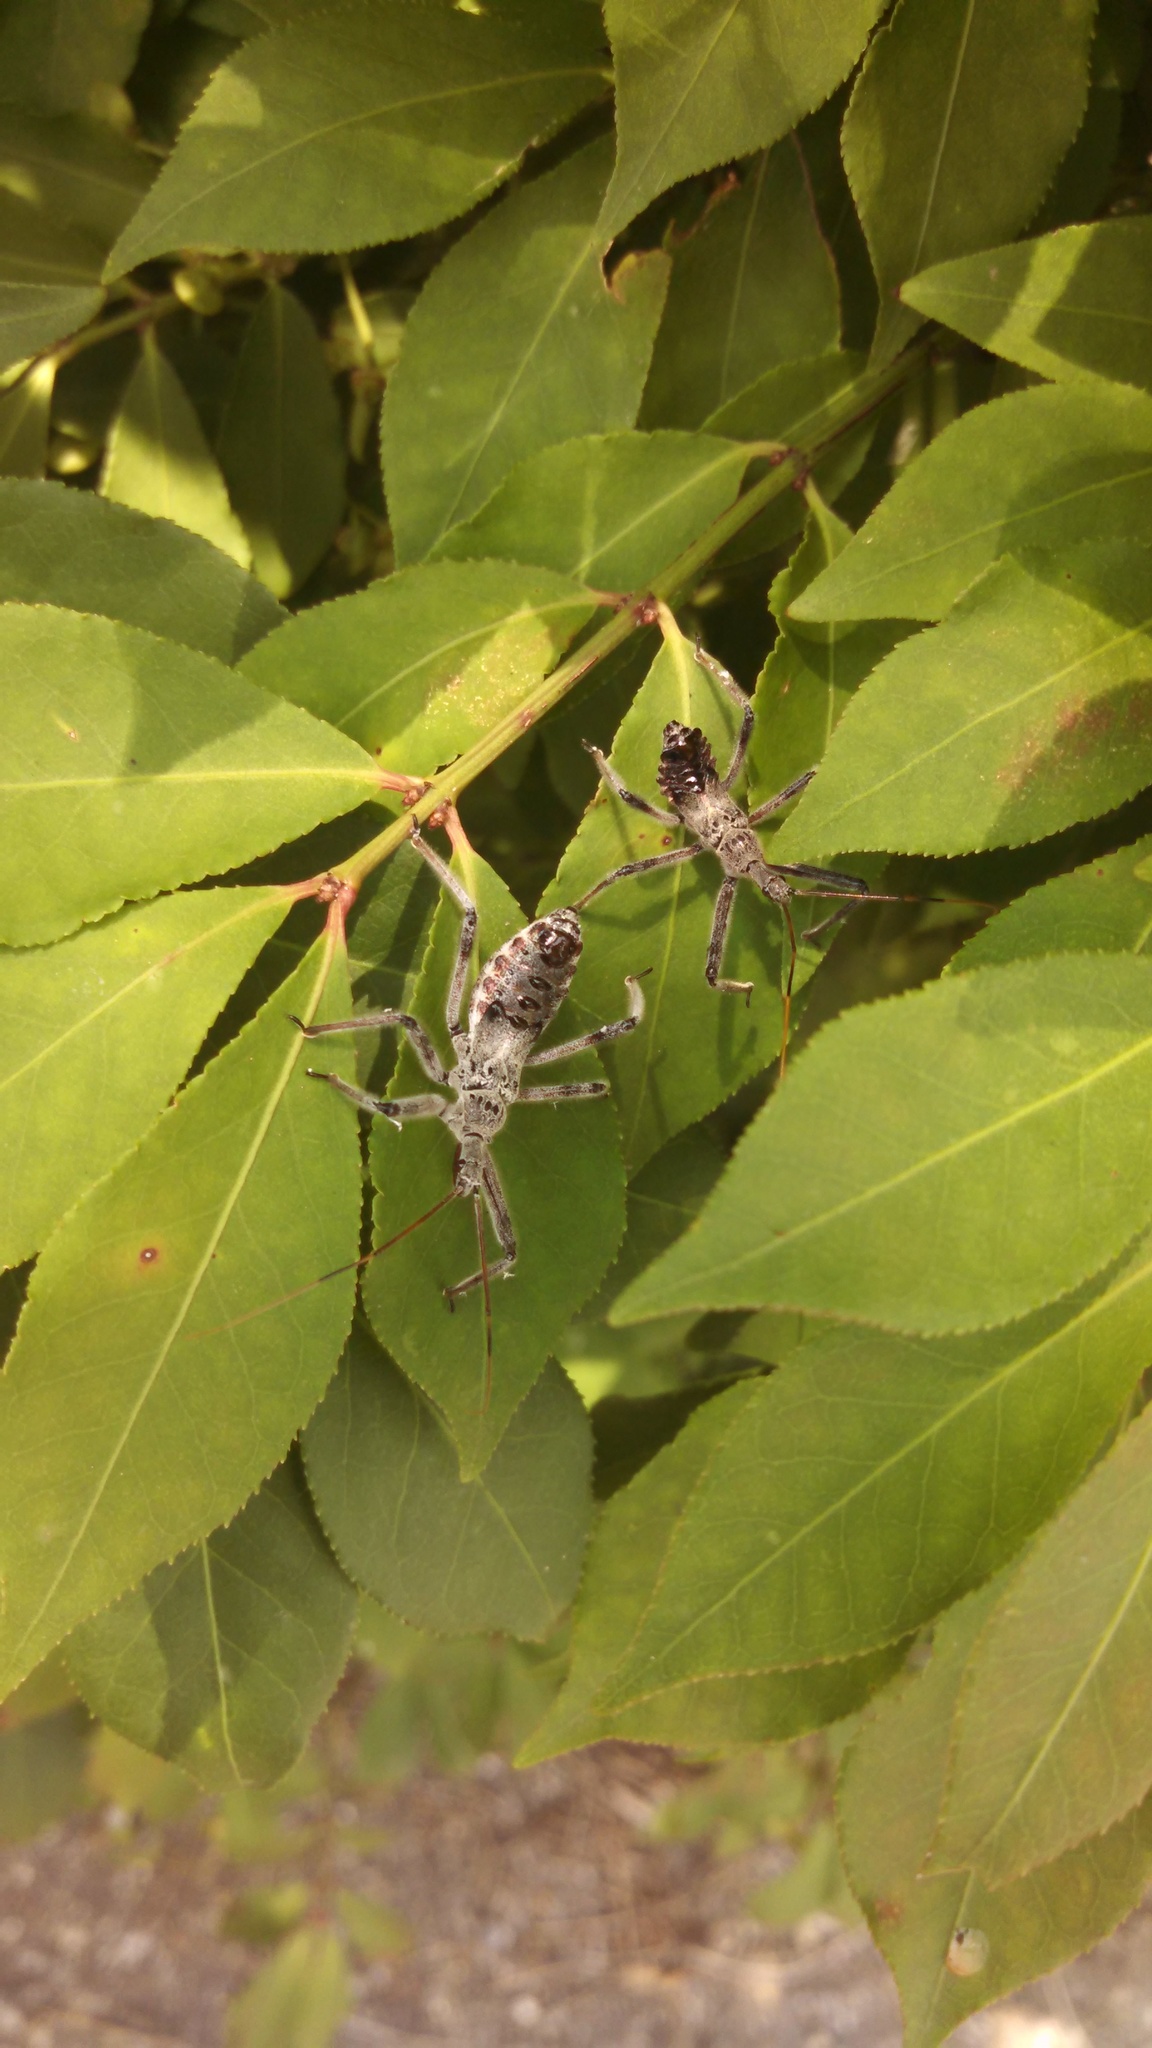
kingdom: Animalia
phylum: Arthropoda
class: Insecta
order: Hemiptera
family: Reduviidae
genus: Arilus
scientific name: Arilus cristatus
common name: North american wheel bug
